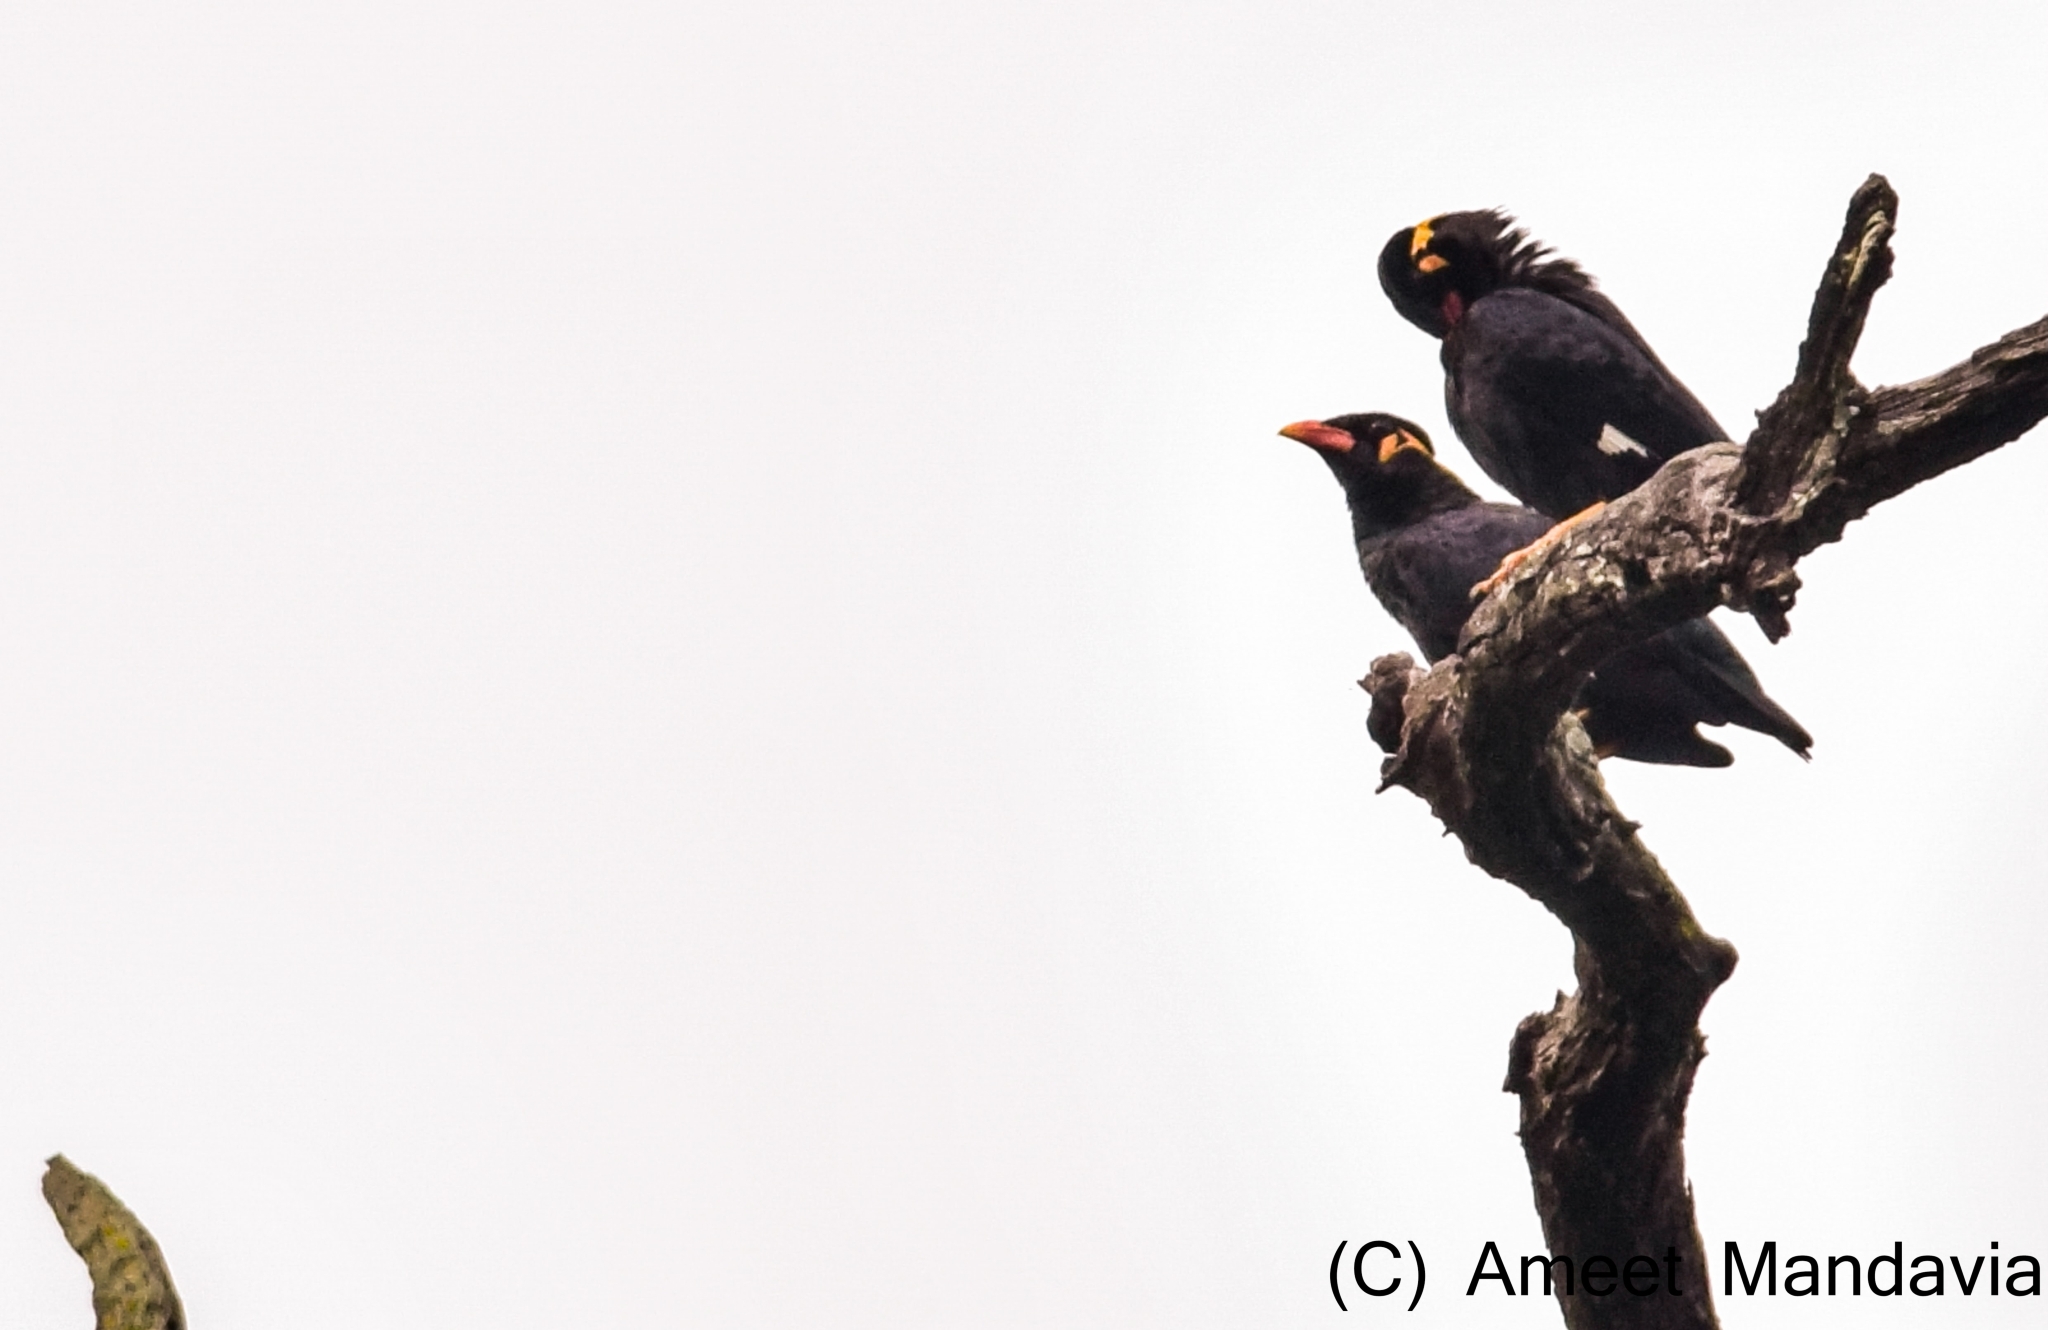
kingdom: Animalia
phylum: Chordata
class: Aves
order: Passeriformes
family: Sturnidae
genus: Gracula
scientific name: Gracula religiosa
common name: Common hill myna
